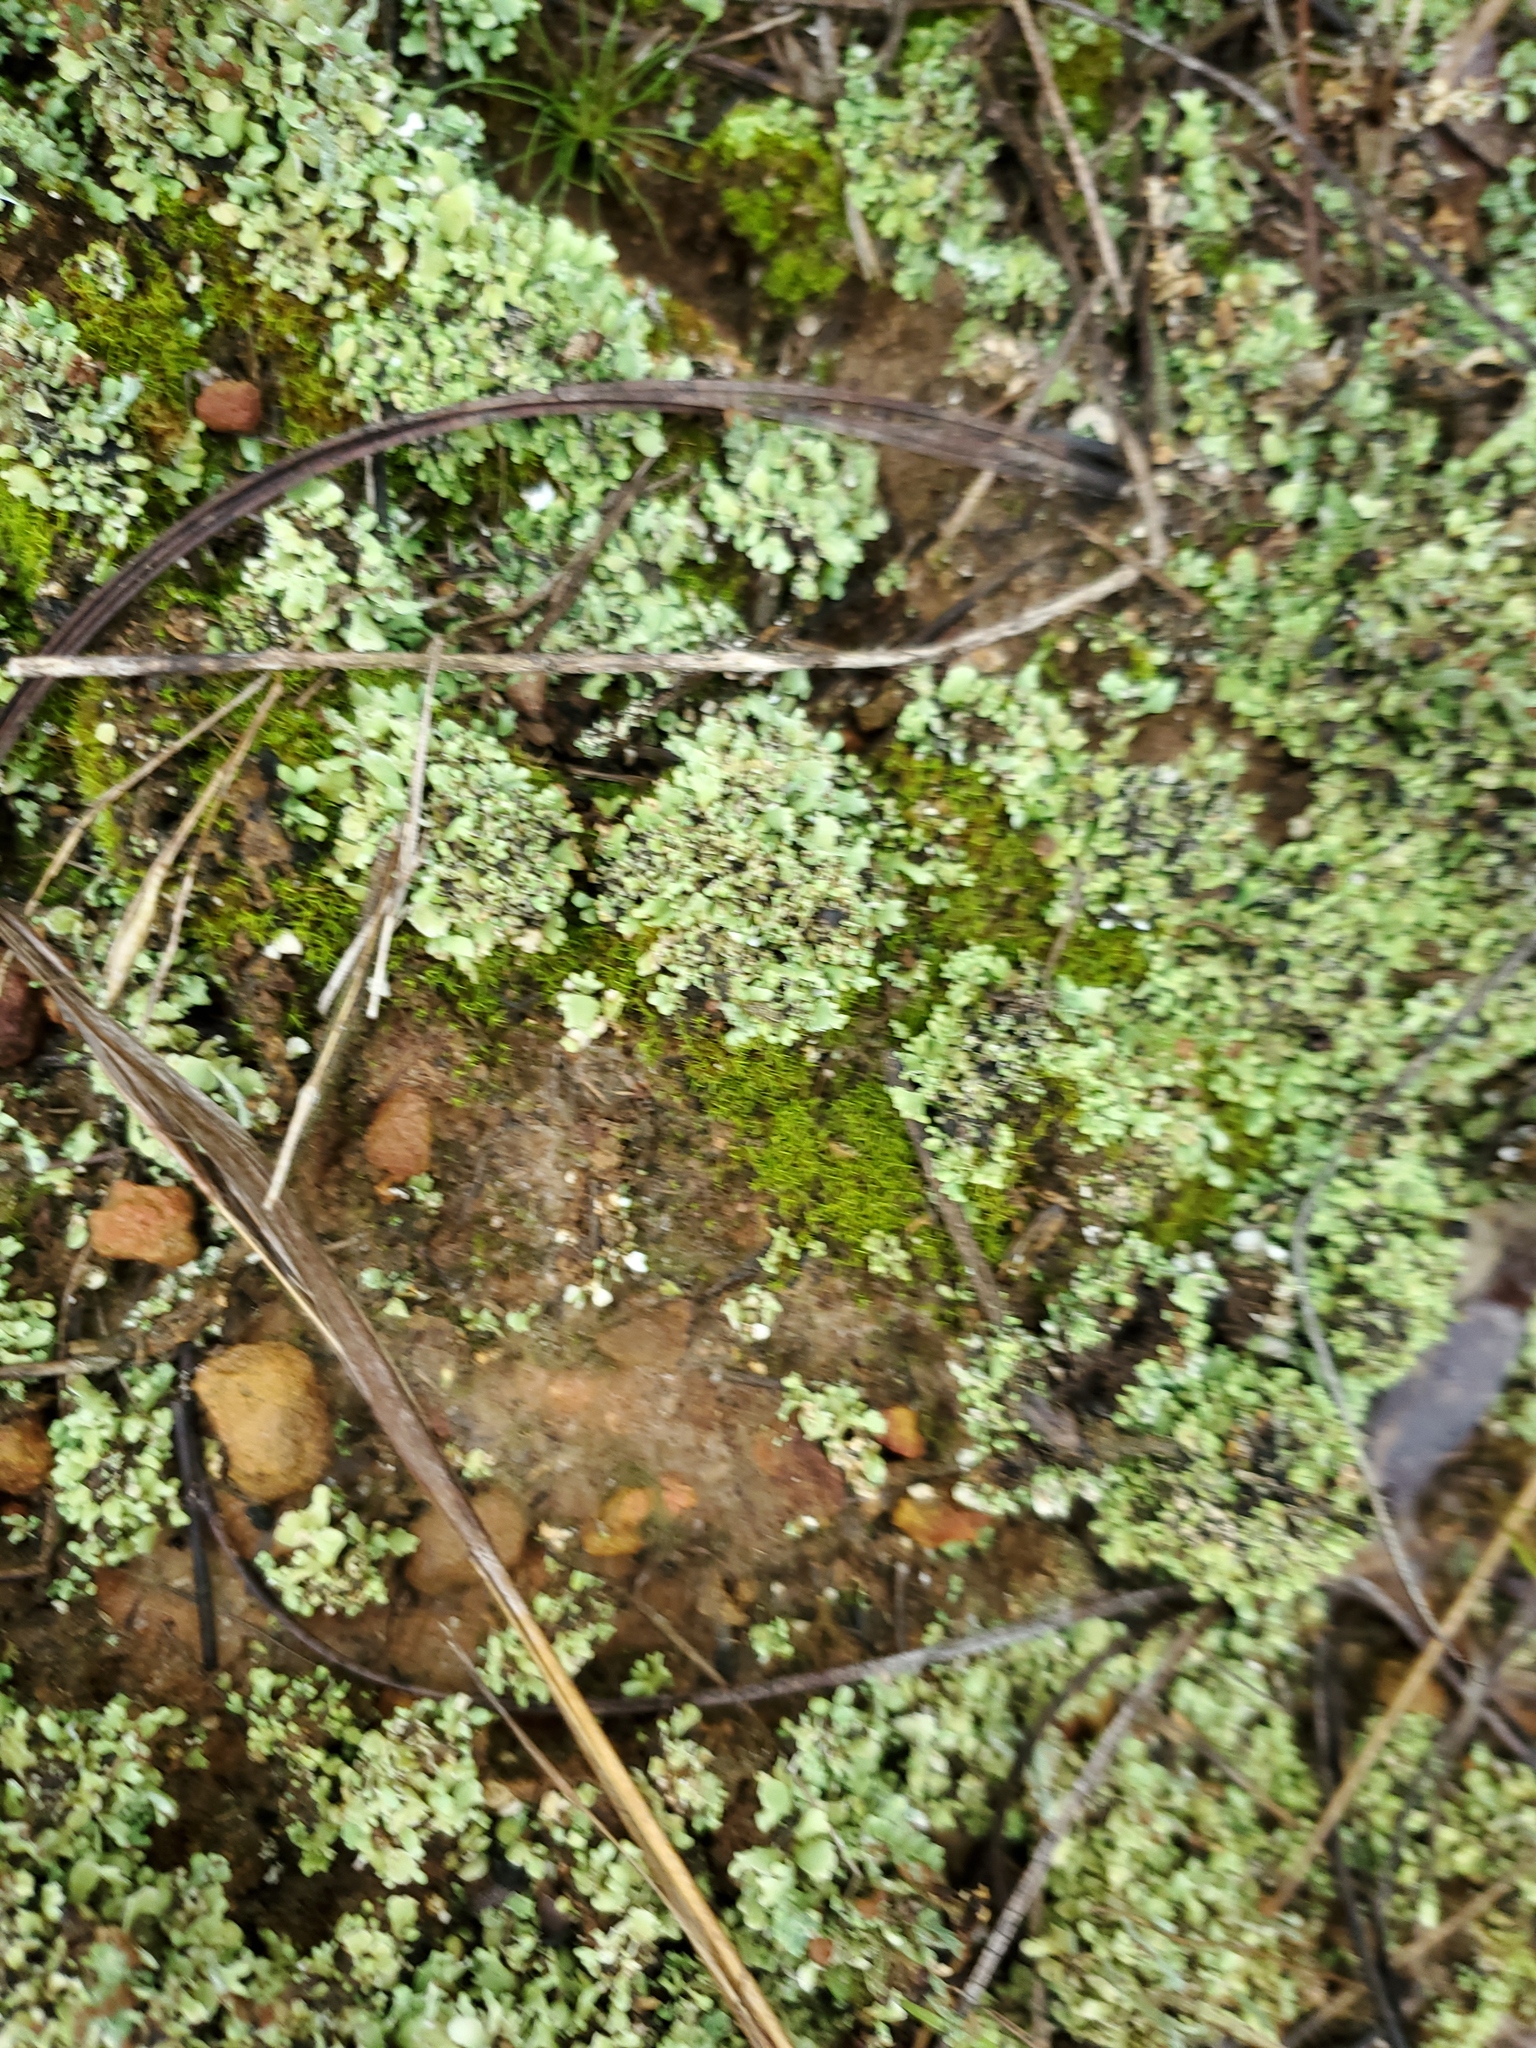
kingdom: Fungi
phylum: Ascomycota
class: Lecanoromycetes
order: Lecanorales
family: Cladoniaceae
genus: Cladonia
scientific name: Cladonia
